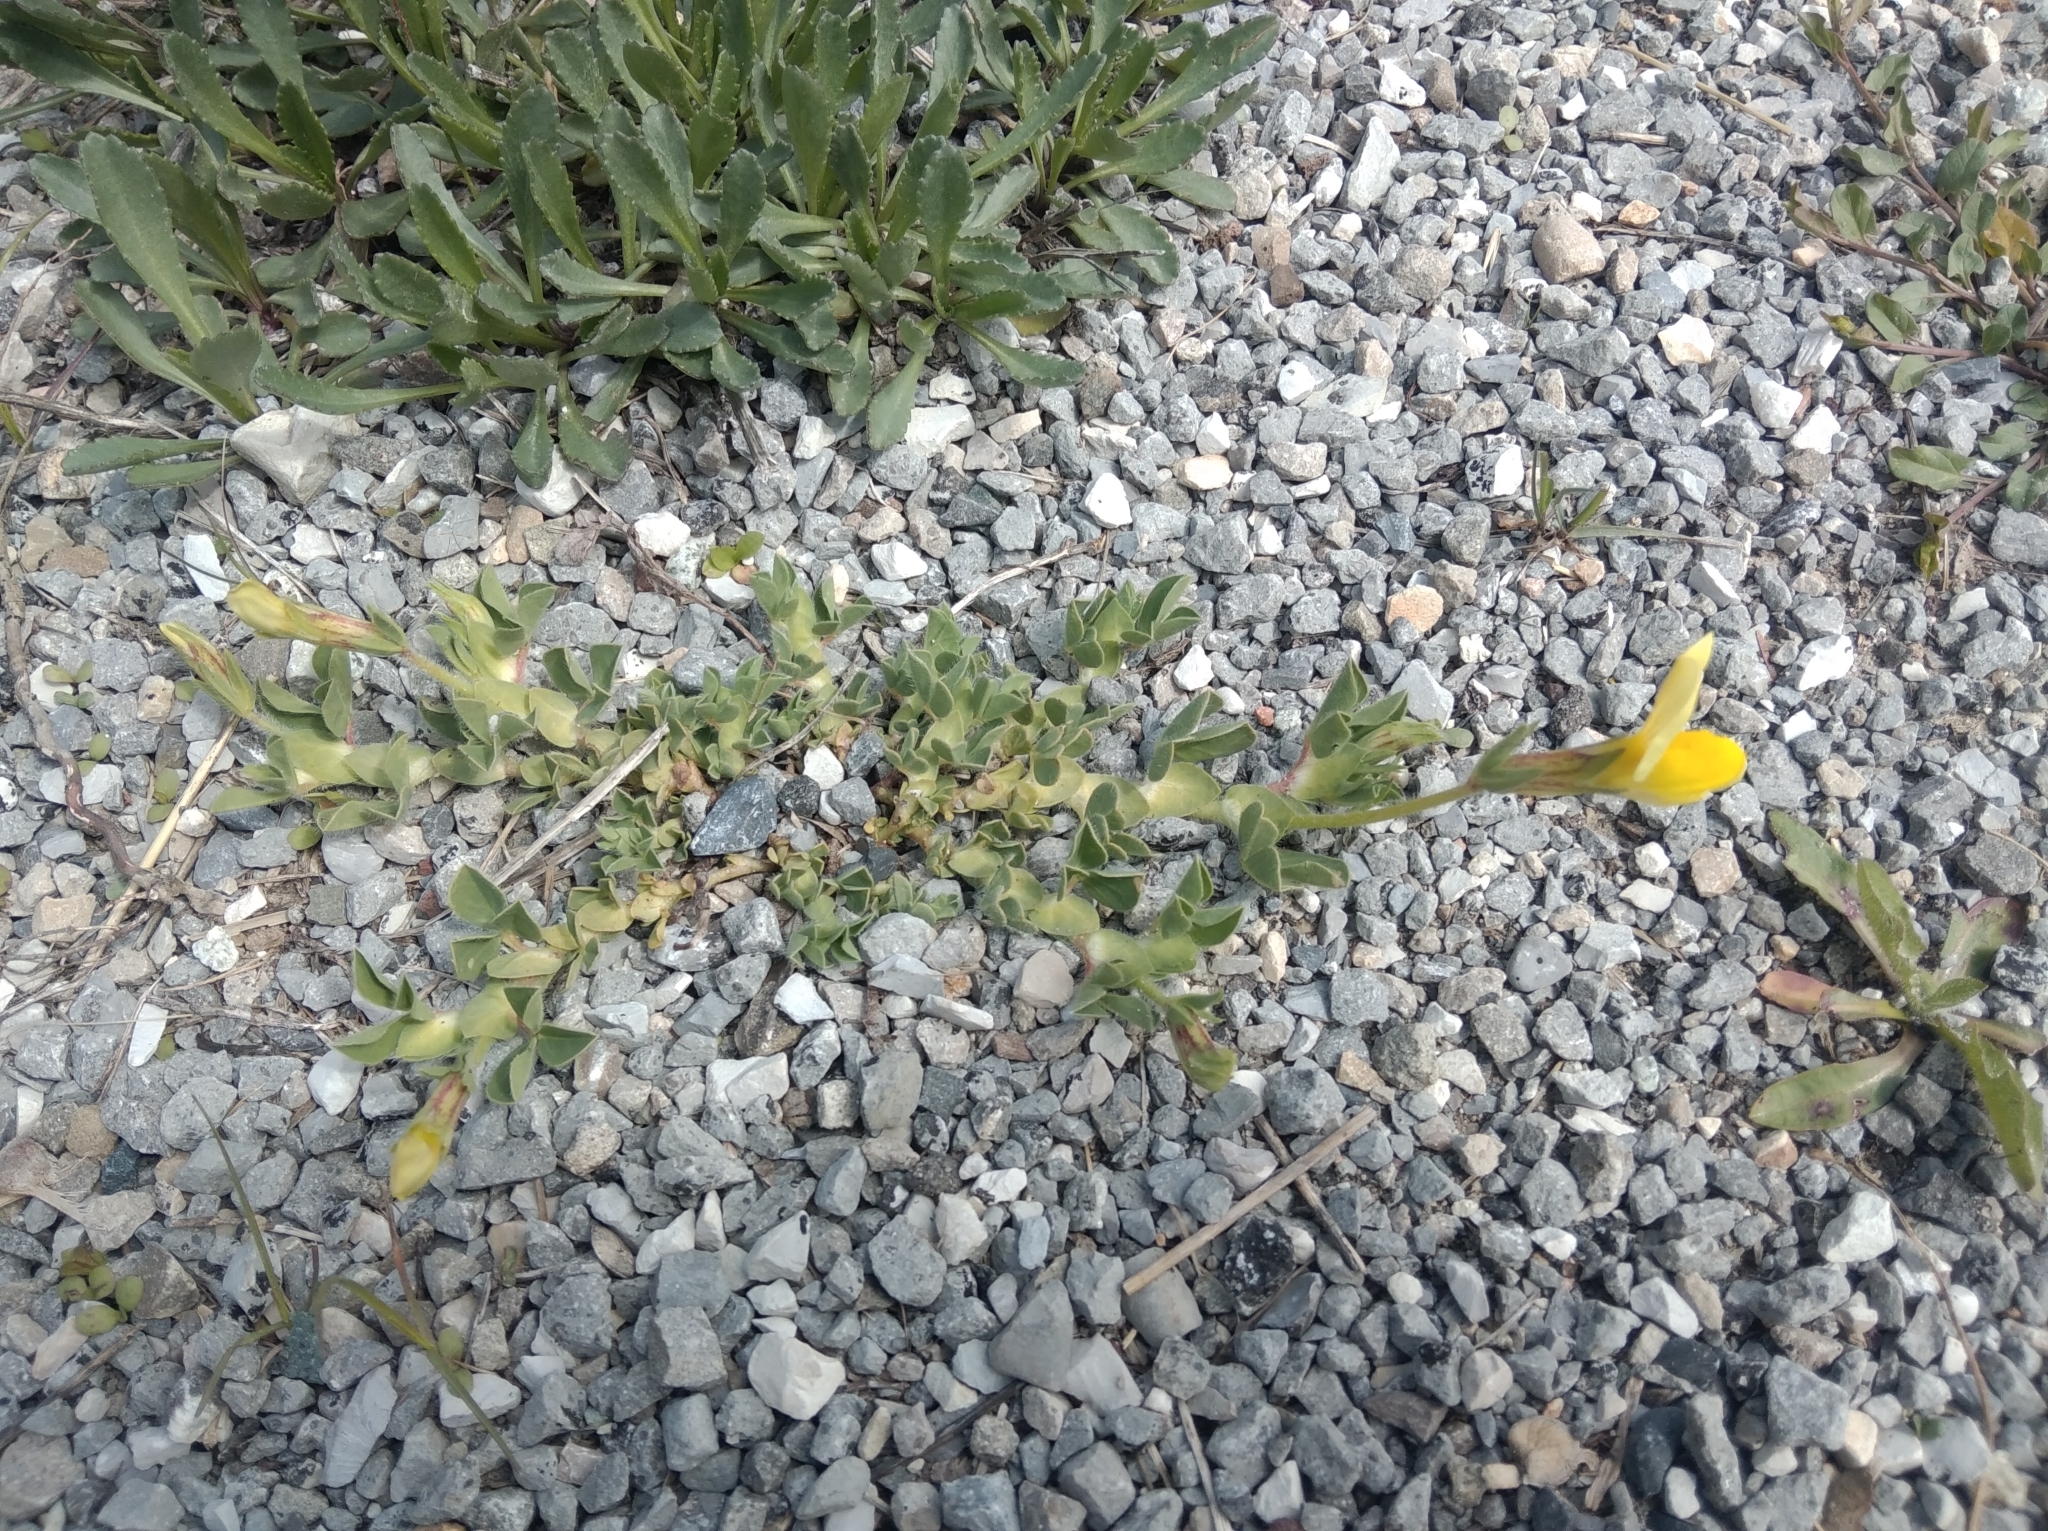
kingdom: Plantae
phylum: Tracheophyta
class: Magnoliopsida
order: Fabales
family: Fabaceae
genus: Lotus
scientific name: Lotus maritimus
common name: Dragon's-teeth
